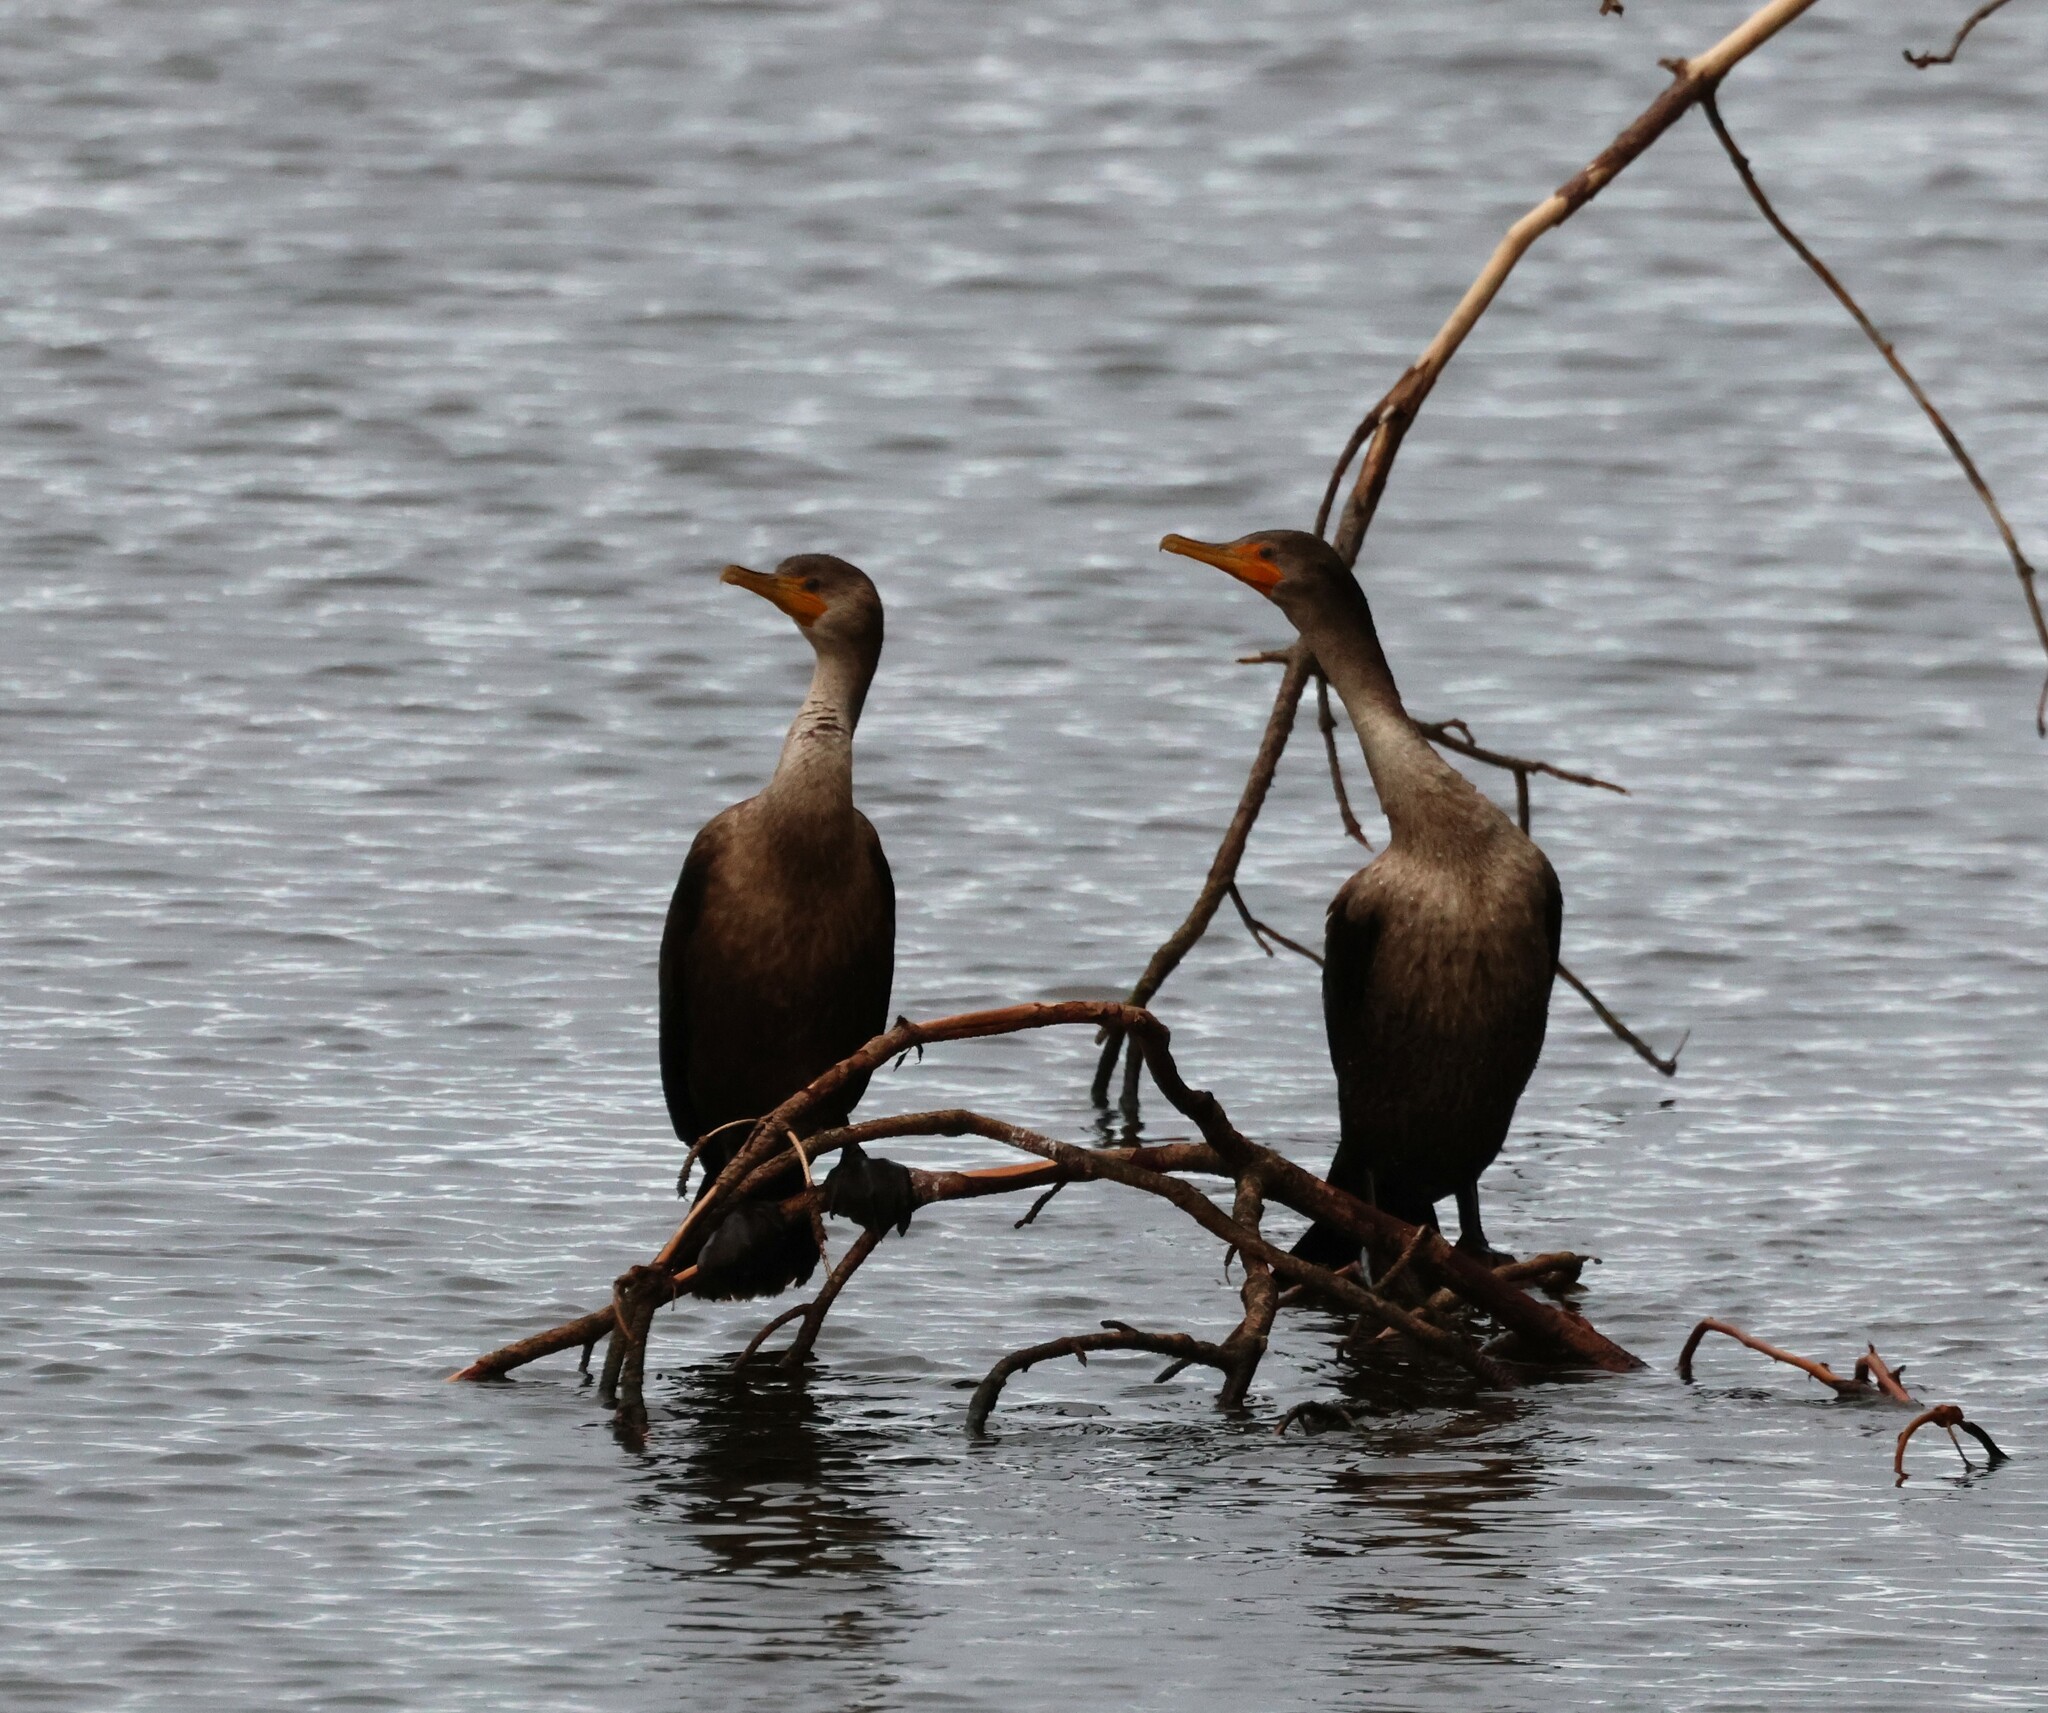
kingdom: Animalia
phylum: Chordata
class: Aves
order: Suliformes
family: Phalacrocoracidae
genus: Phalacrocorax
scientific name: Phalacrocorax auritus
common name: Double-crested cormorant
